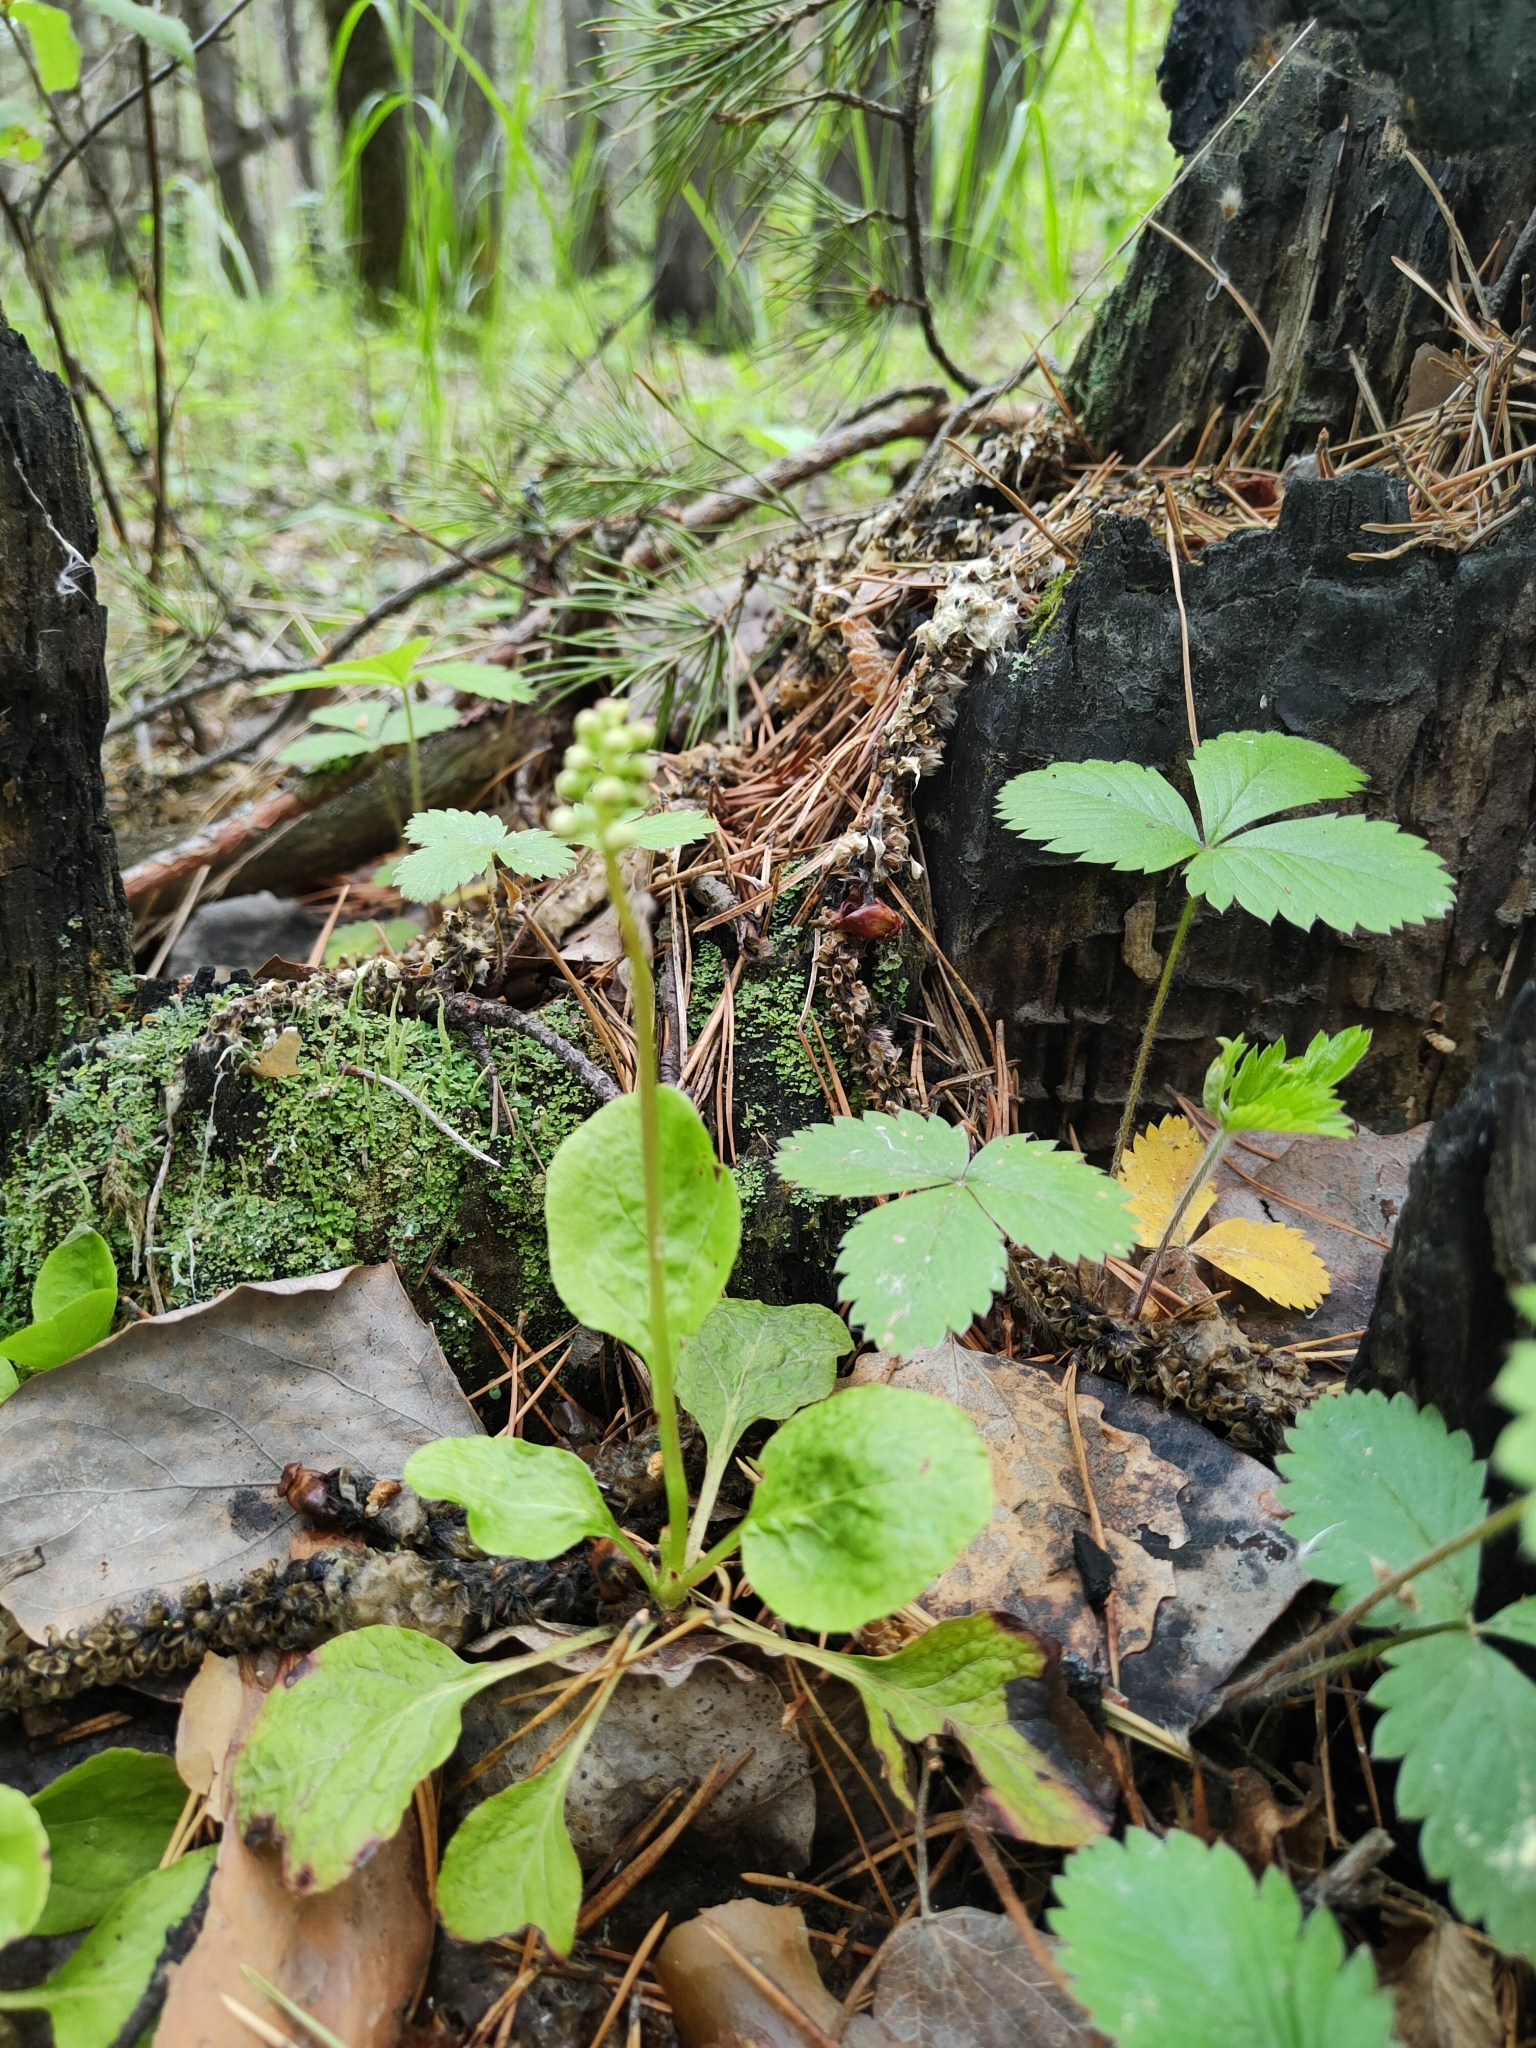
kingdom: Plantae
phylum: Tracheophyta
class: Magnoliopsida
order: Ericales
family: Ericaceae
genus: Pyrola
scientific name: Pyrola minor
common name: Common wintergreen
